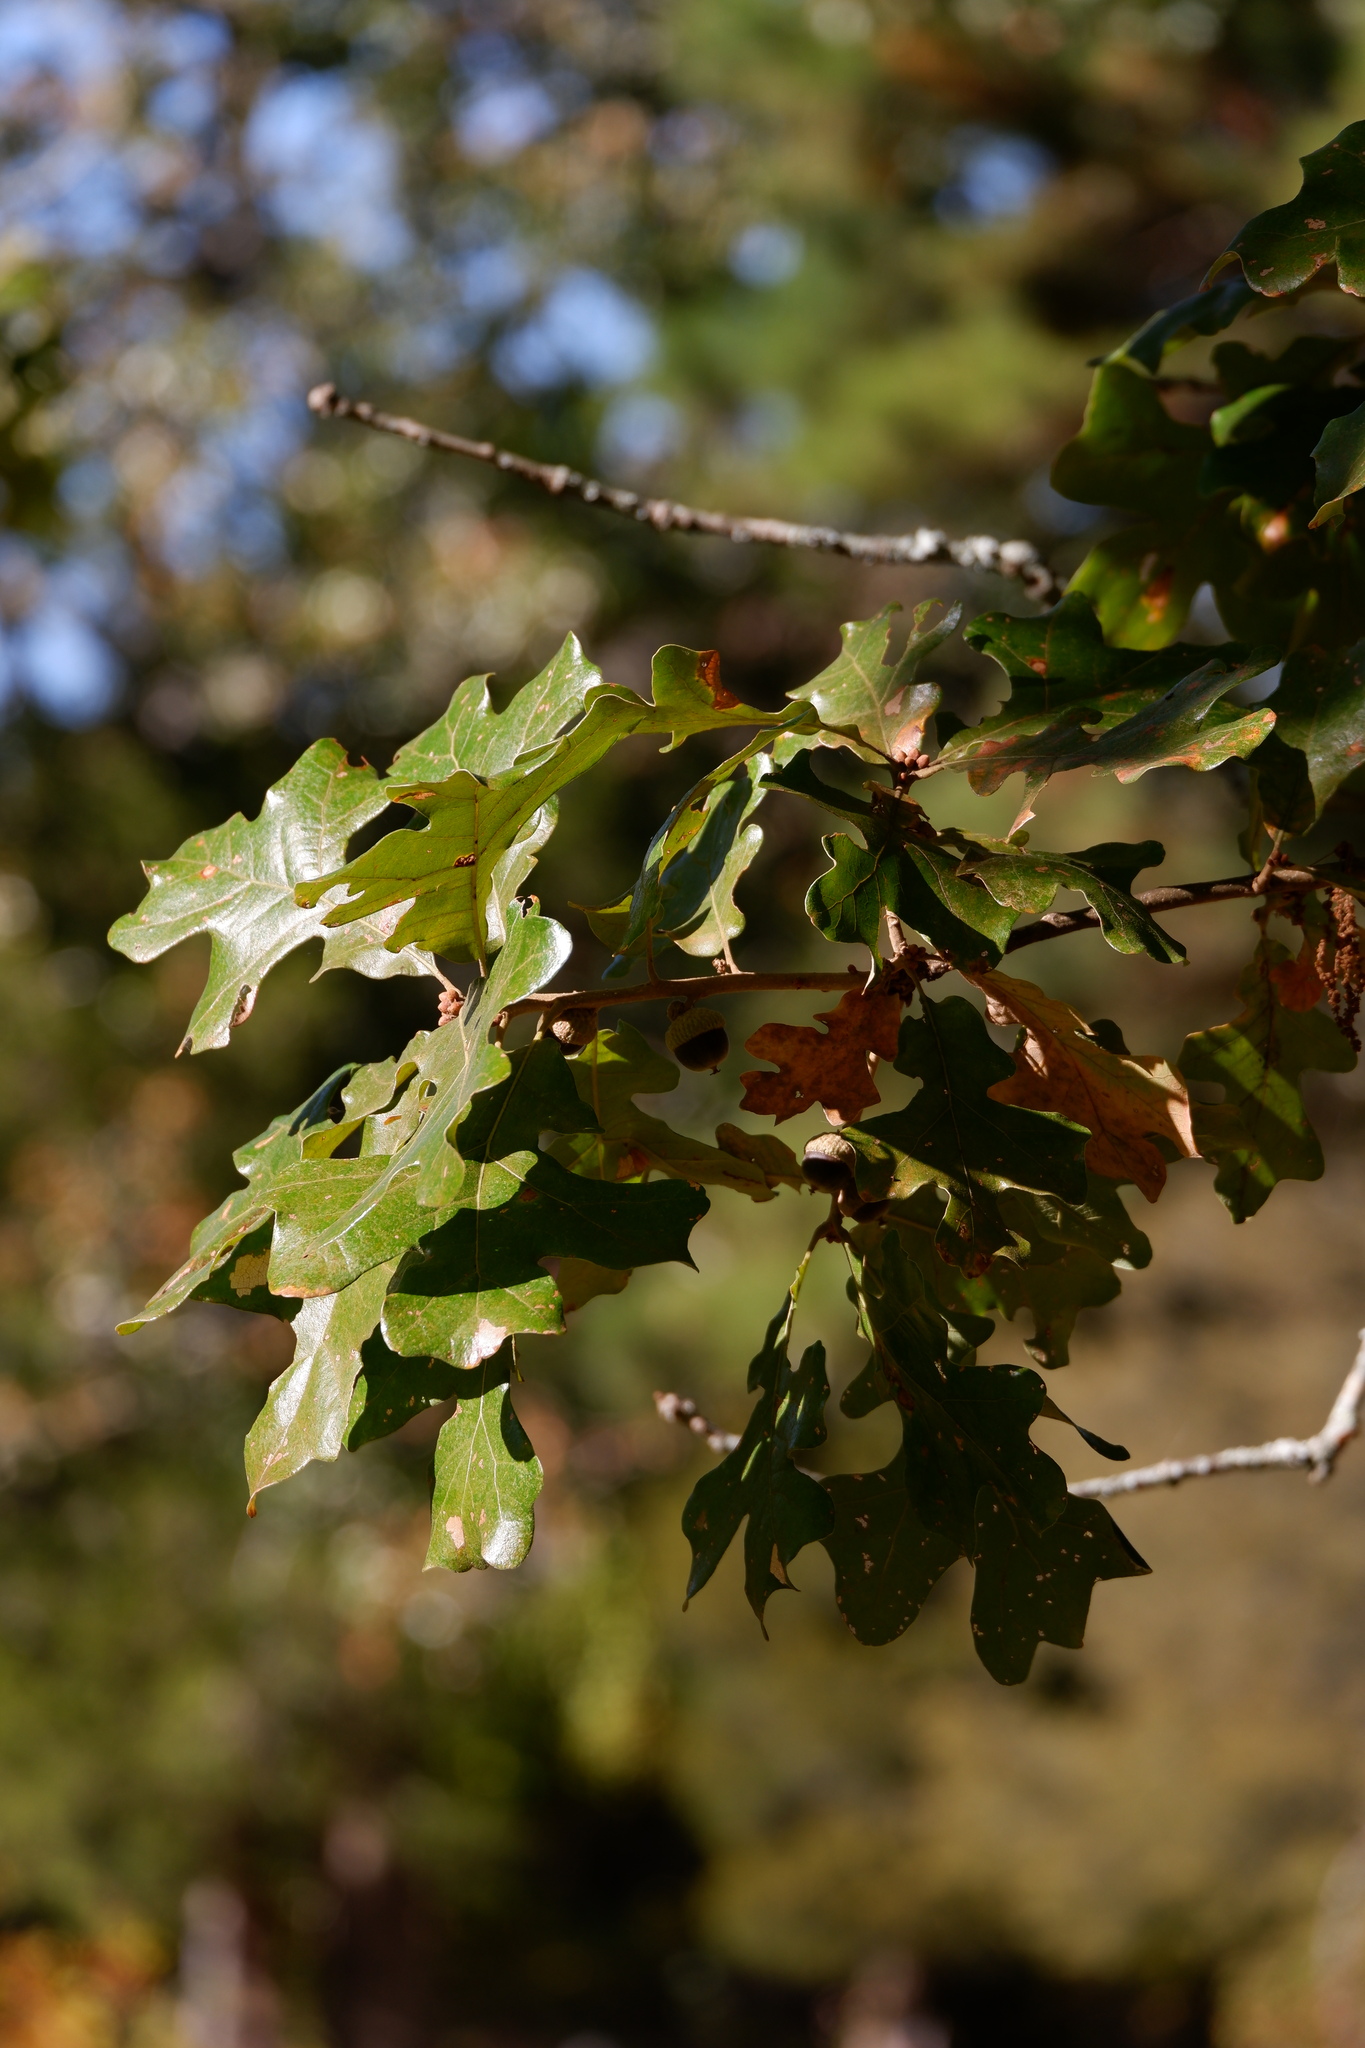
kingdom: Plantae
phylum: Tracheophyta
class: Magnoliopsida
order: Fagales
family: Fagaceae
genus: Quercus
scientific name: Quercus stellata
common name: Post oak
